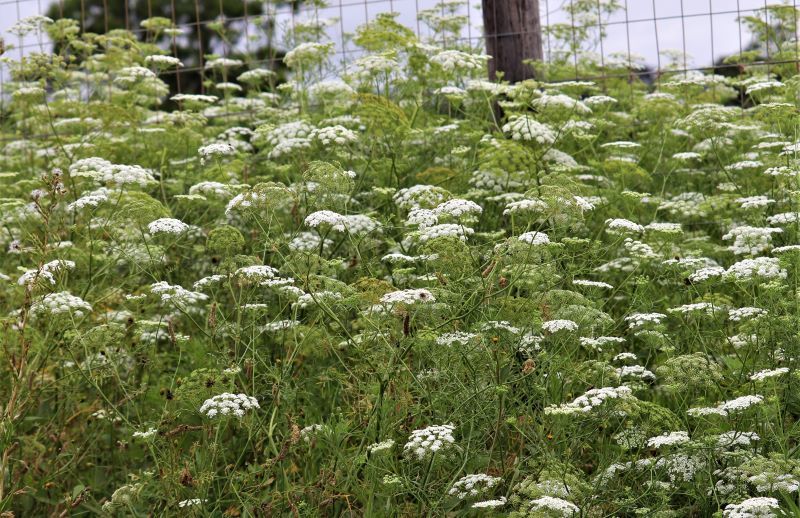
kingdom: Plantae
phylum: Tracheophyta
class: Magnoliopsida
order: Apiales
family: Apiaceae
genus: Ammi
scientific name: Ammi majus
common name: Bullwort
